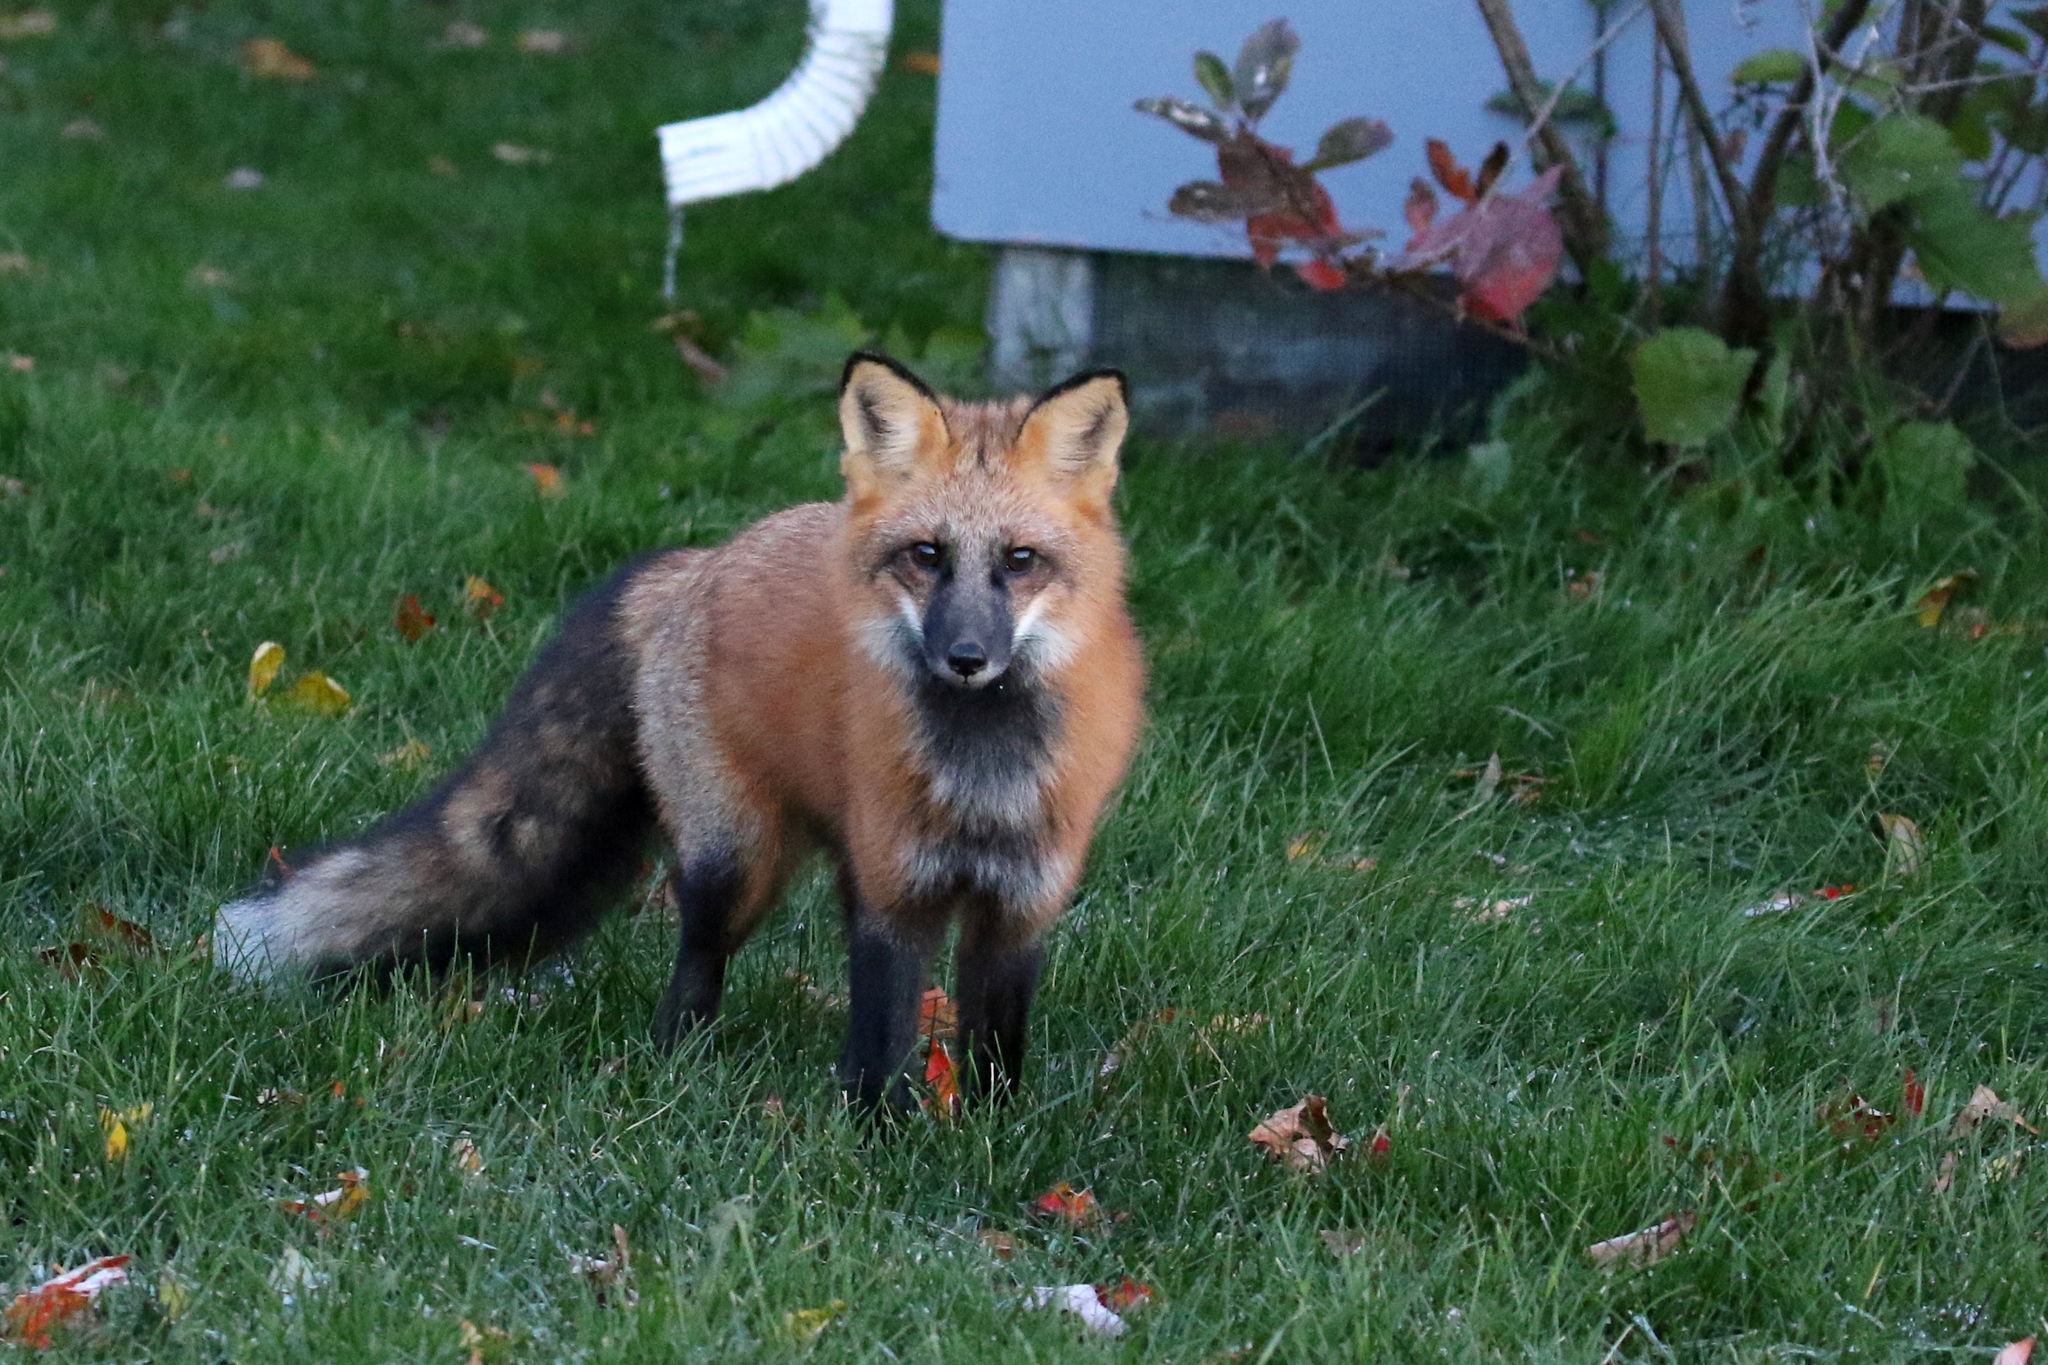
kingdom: Animalia
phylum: Chordata
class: Mammalia
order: Carnivora
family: Canidae
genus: Vulpes
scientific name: Vulpes vulpes
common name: Red fox
